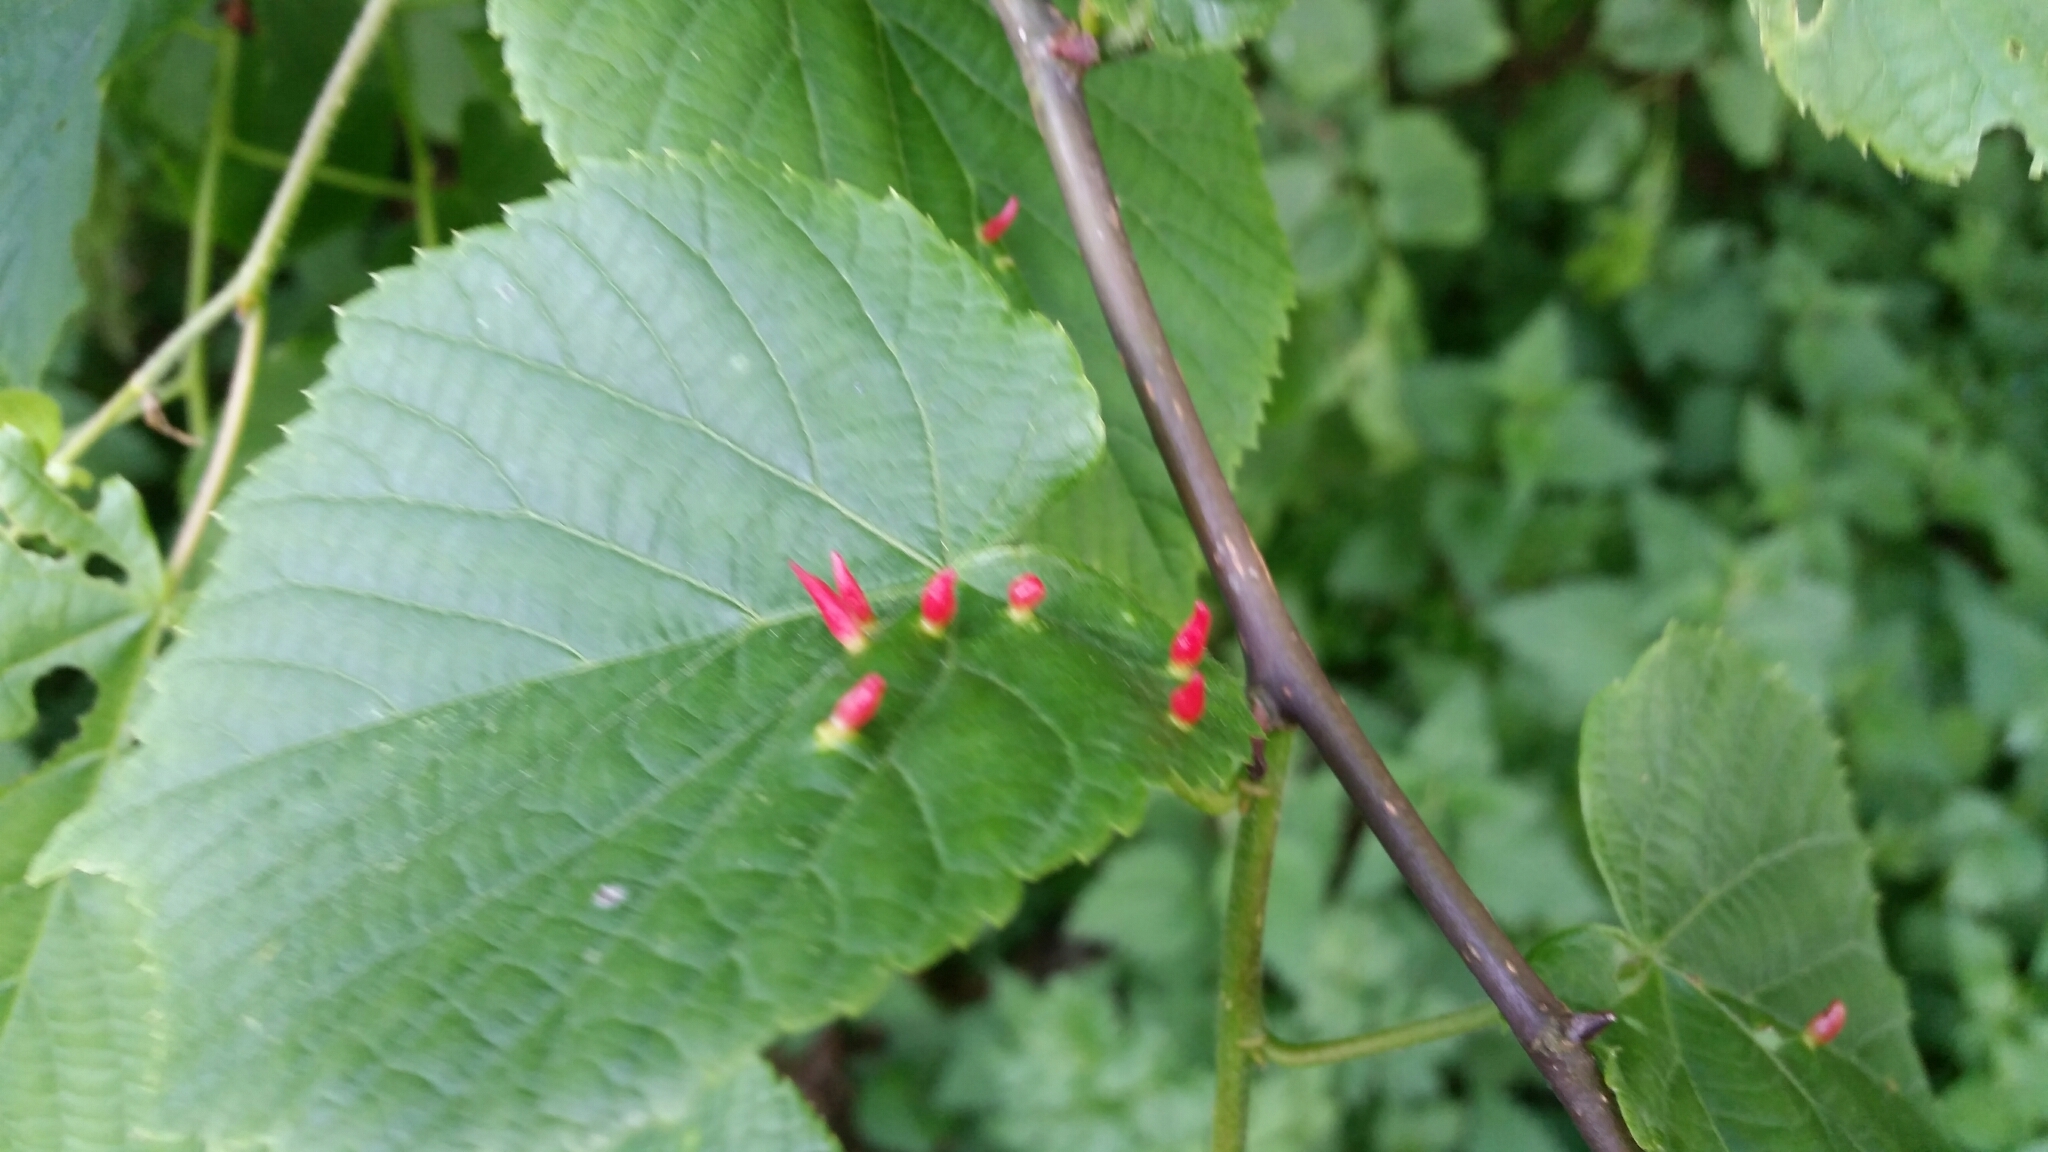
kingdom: Animalia
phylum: Arthropoda
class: Arachnida
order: Trombidiformes
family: Eriophyidae
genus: Eriophyes
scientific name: Eriophyes tiliae
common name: Red nail gall mite
